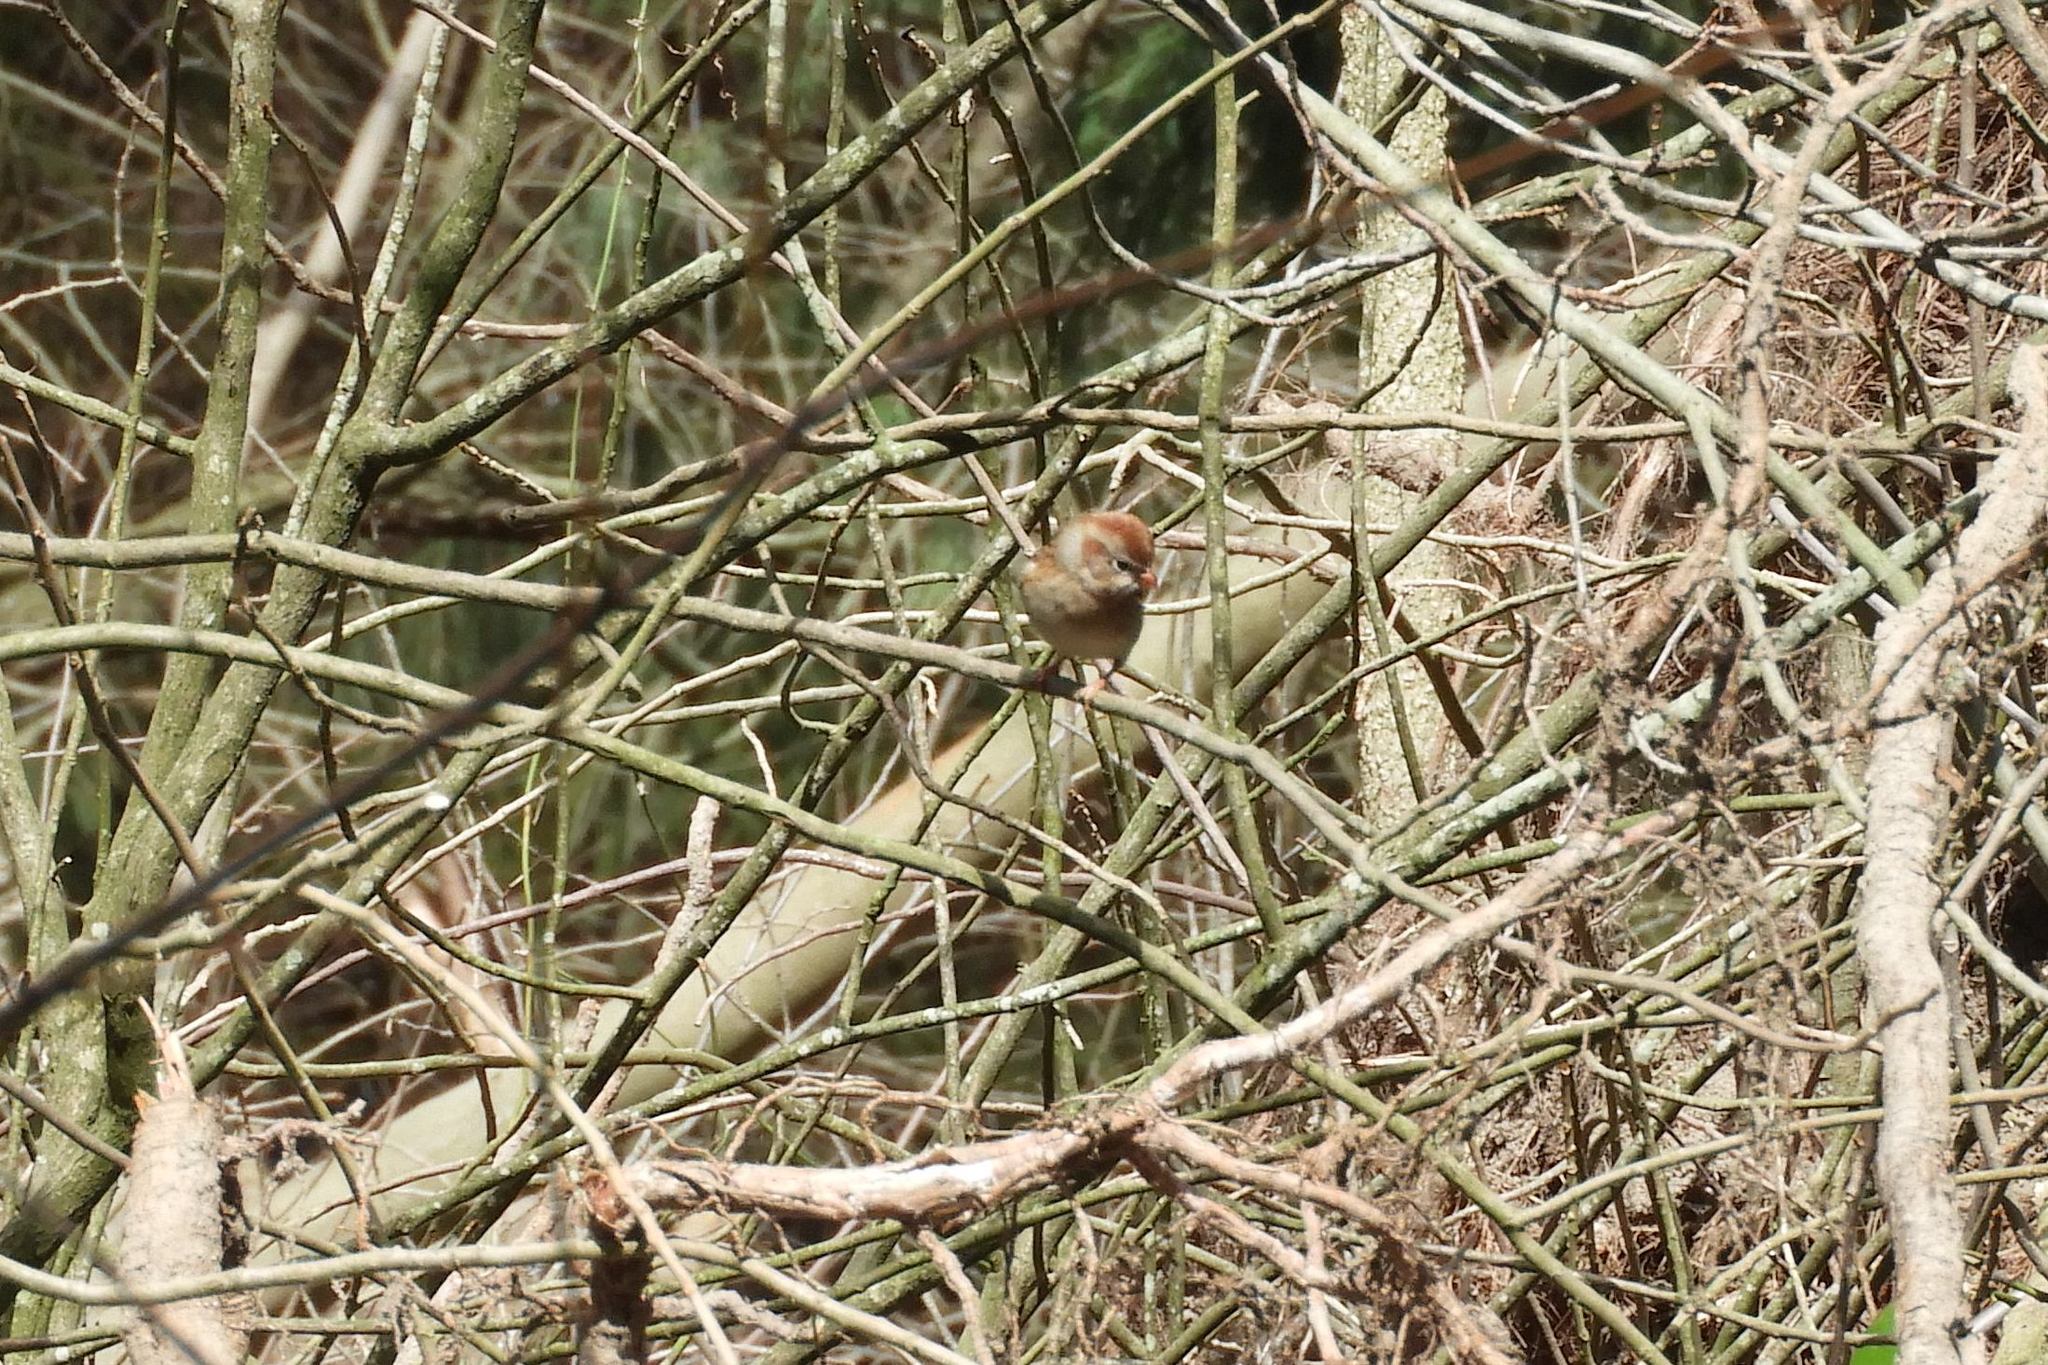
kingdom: Animalia
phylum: Chordata
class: Aves
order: Passeriformes
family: Passerellidae
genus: Spizella
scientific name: Spizella pusilla
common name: Field sparrow
